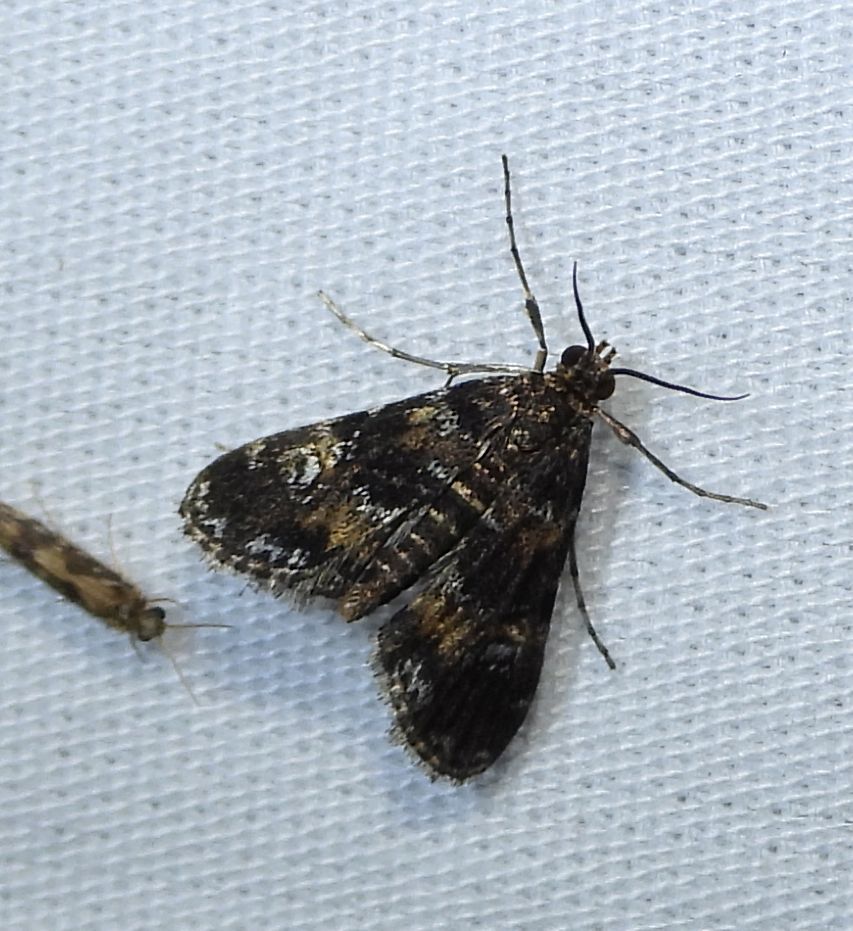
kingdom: Animalia
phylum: Arthropoda
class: Insecta
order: Lepidoptera
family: Crambidae
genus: Elophila
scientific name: Elophila obliteralis
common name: Waterlily leafcutter moth
